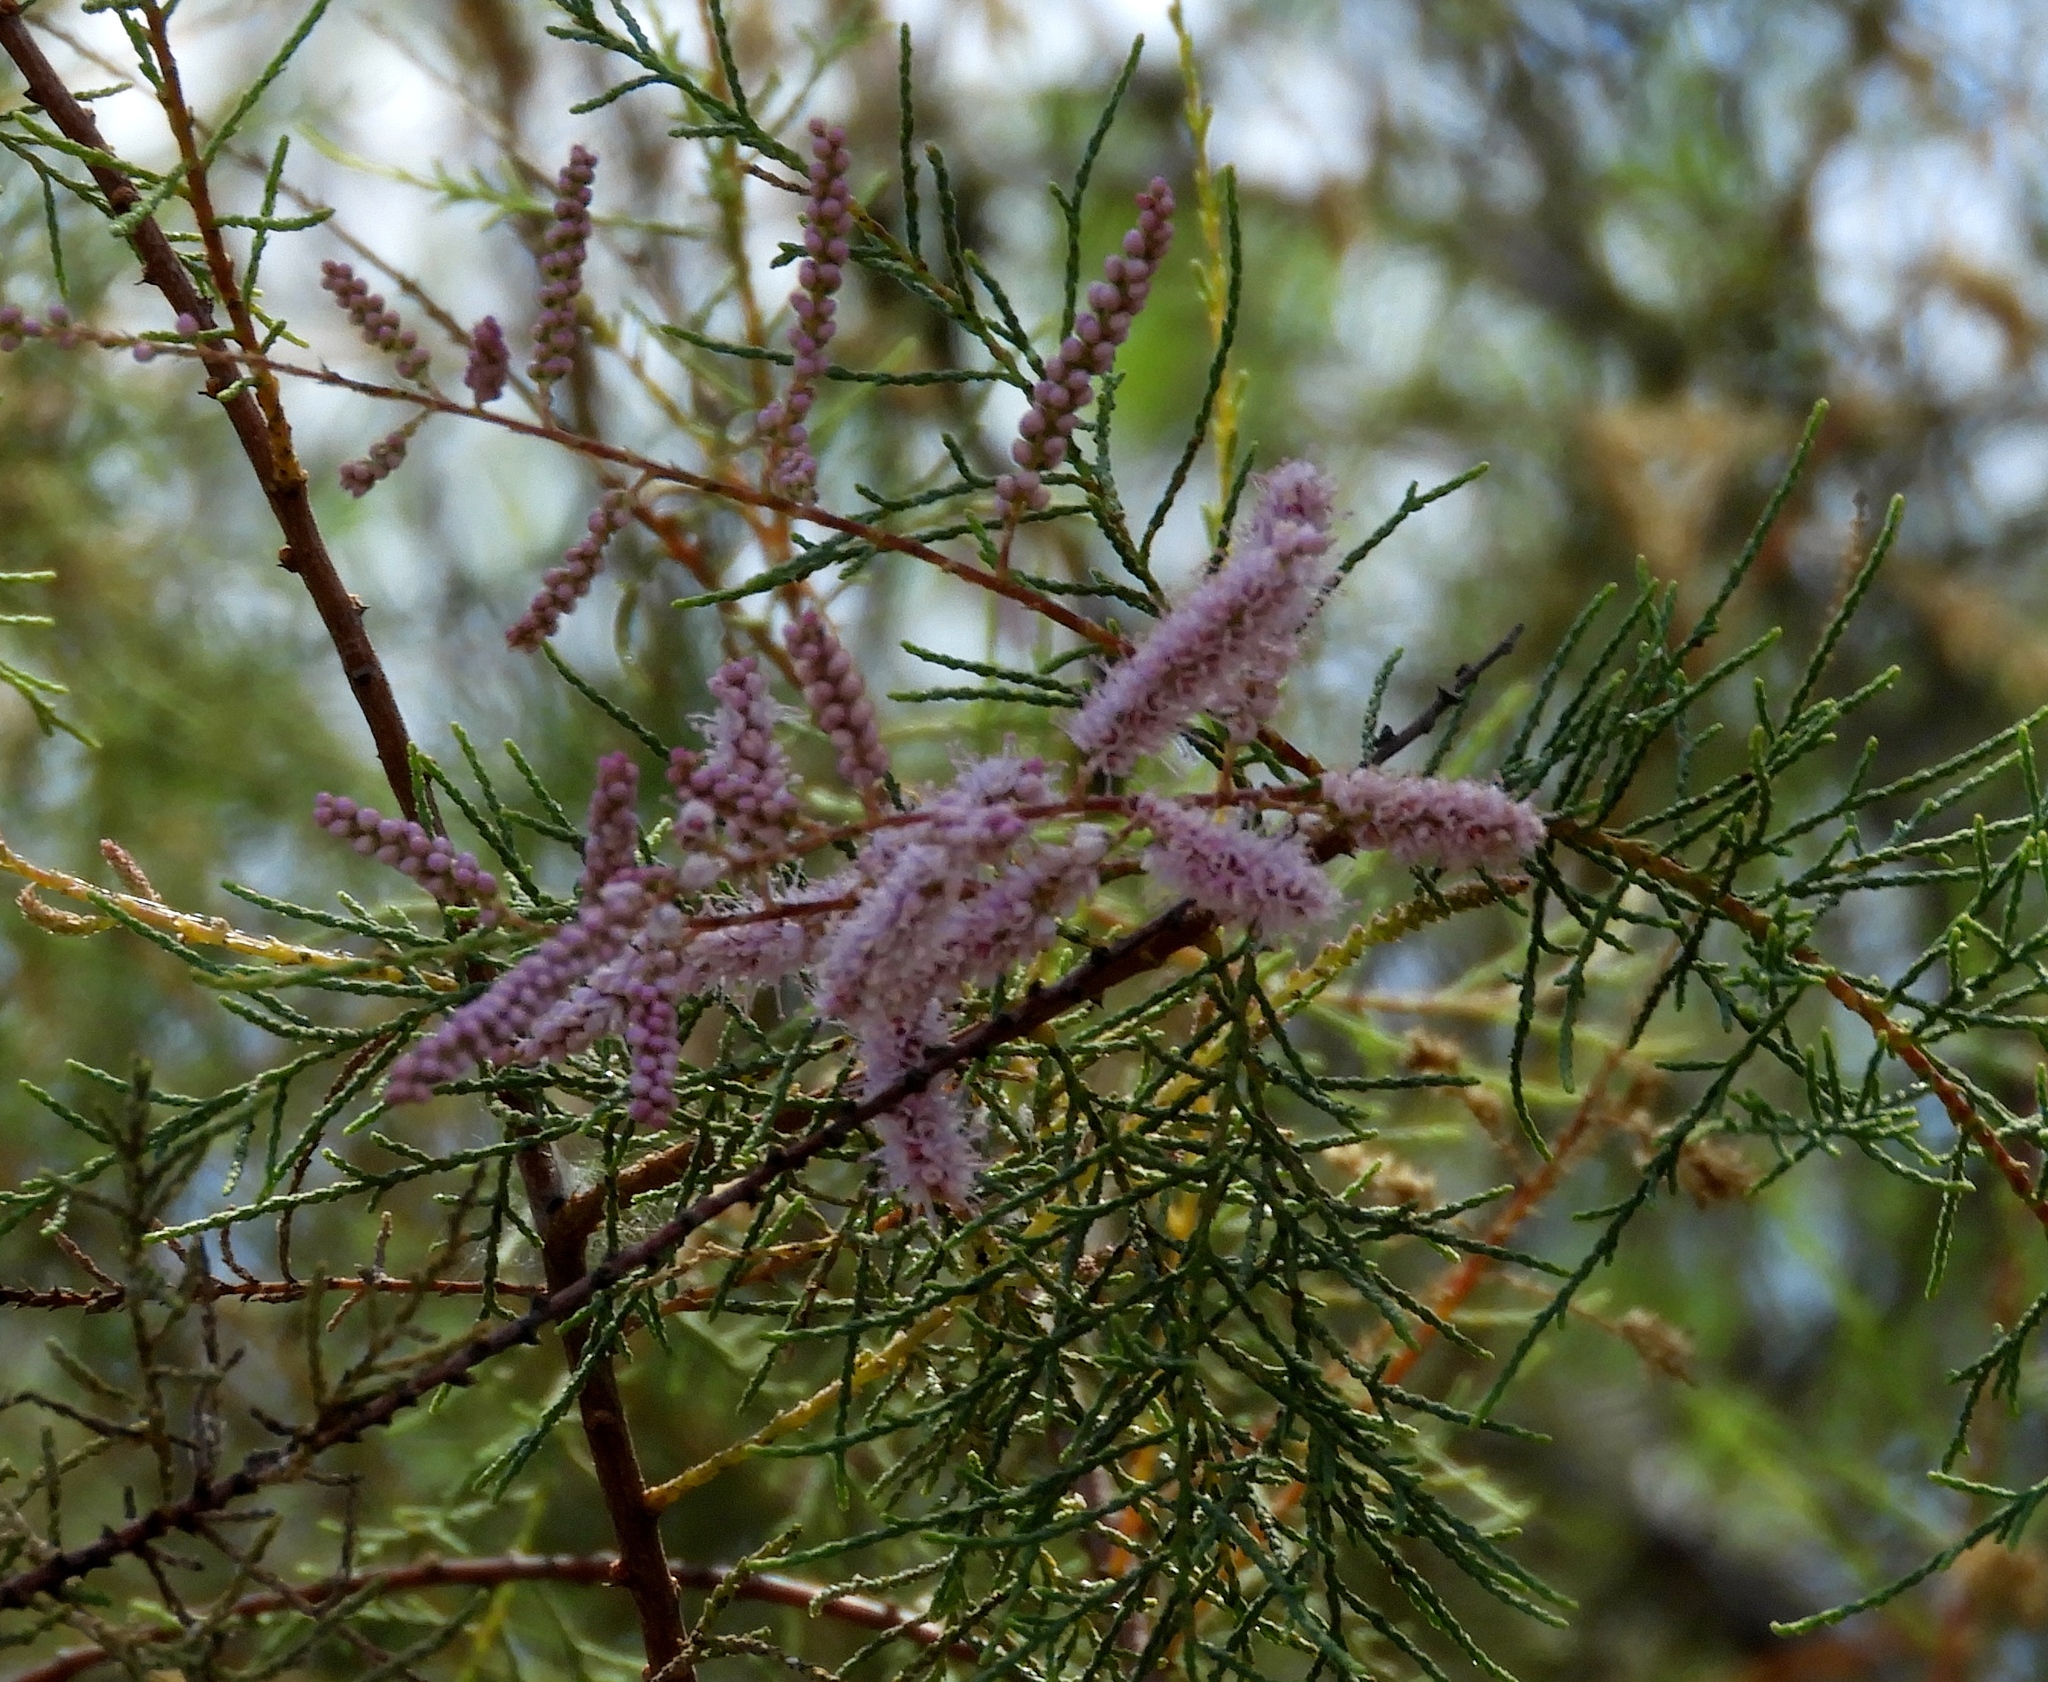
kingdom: Plantae
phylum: Tracheophyta
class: Magnoliopsida
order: Caryophyllales
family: Tamaricaceae
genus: Tamarix
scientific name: Tamarix ramosissima
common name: Pink tamarisk
